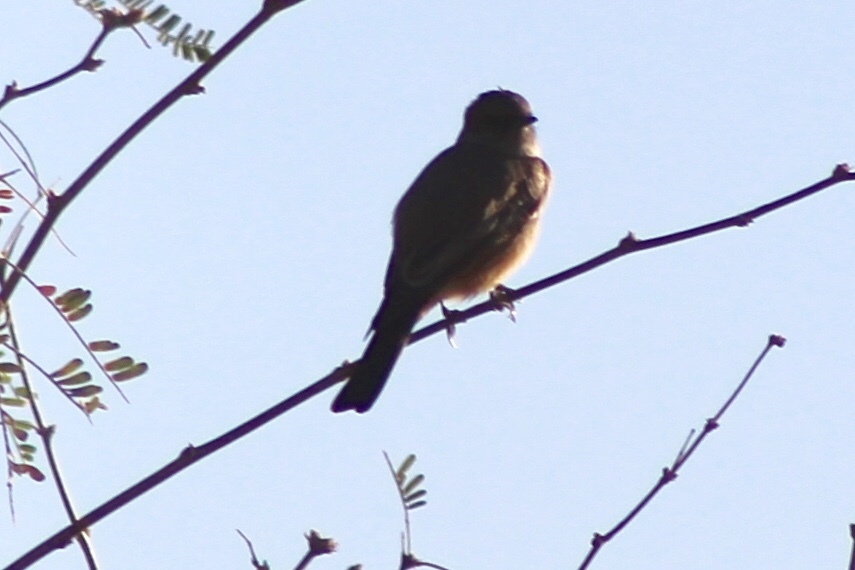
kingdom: Animalia
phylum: Chordata
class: Aves
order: Passeriformes
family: Tyrannidae
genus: Sayornis
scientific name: Sayornis saya
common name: Say's phoebe
